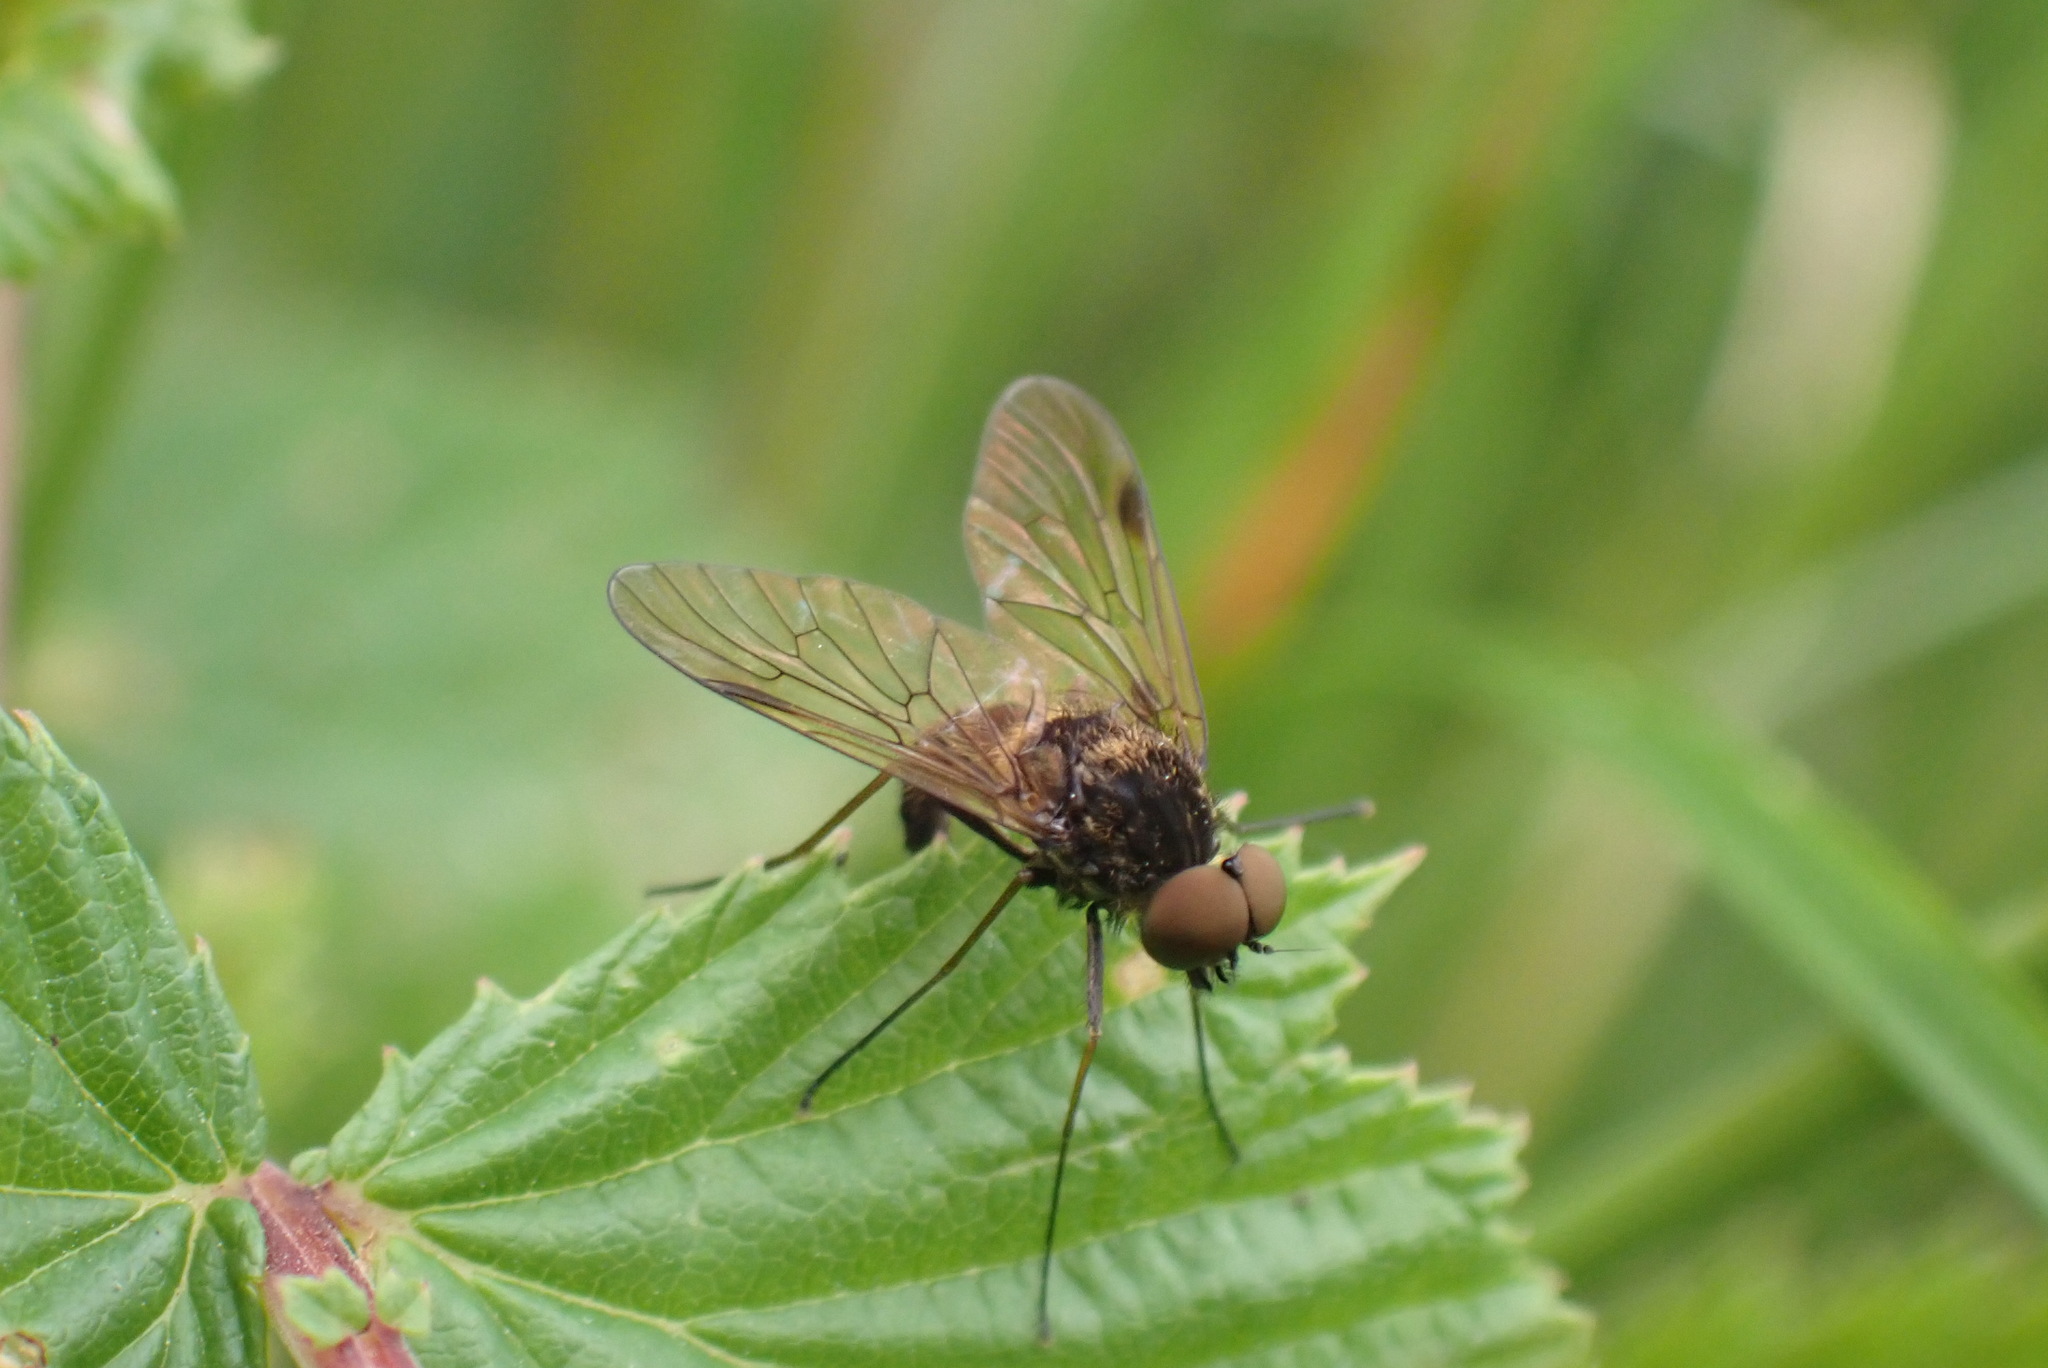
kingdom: Animalia
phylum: Arthropoda
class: Insecta
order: Diptera
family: Rhagionidae
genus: Chrysopilus
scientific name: Chrysopilus cristatus
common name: Black snipefly
